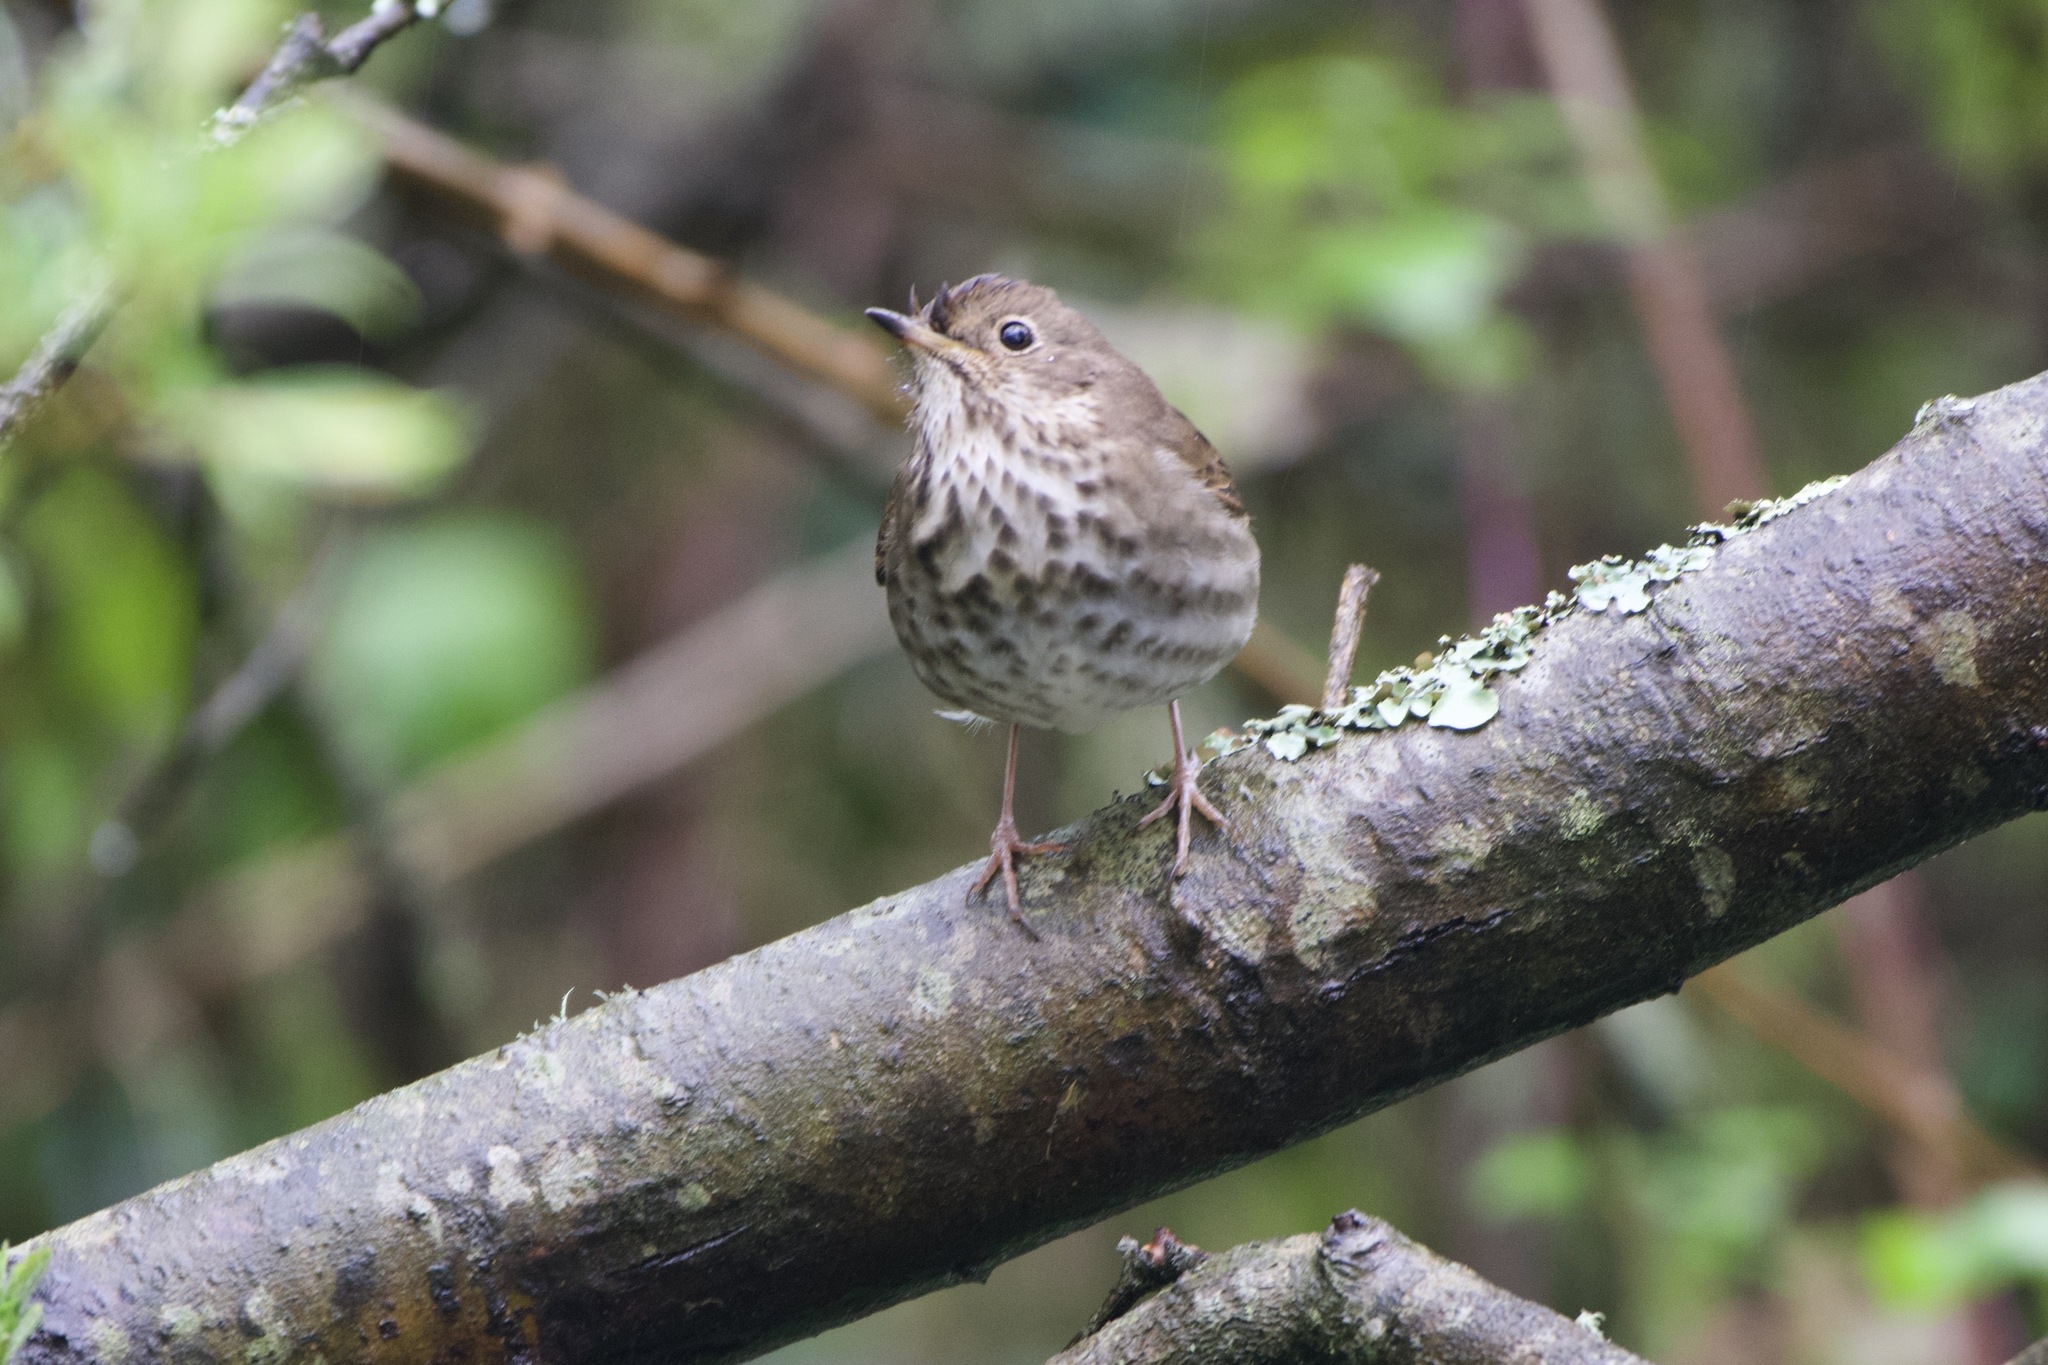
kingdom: Animalia
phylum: Chordata
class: Aves
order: Passeriformes
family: Turdidae
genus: Catharus
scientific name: Catharus guttatus
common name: Hermit thrush
